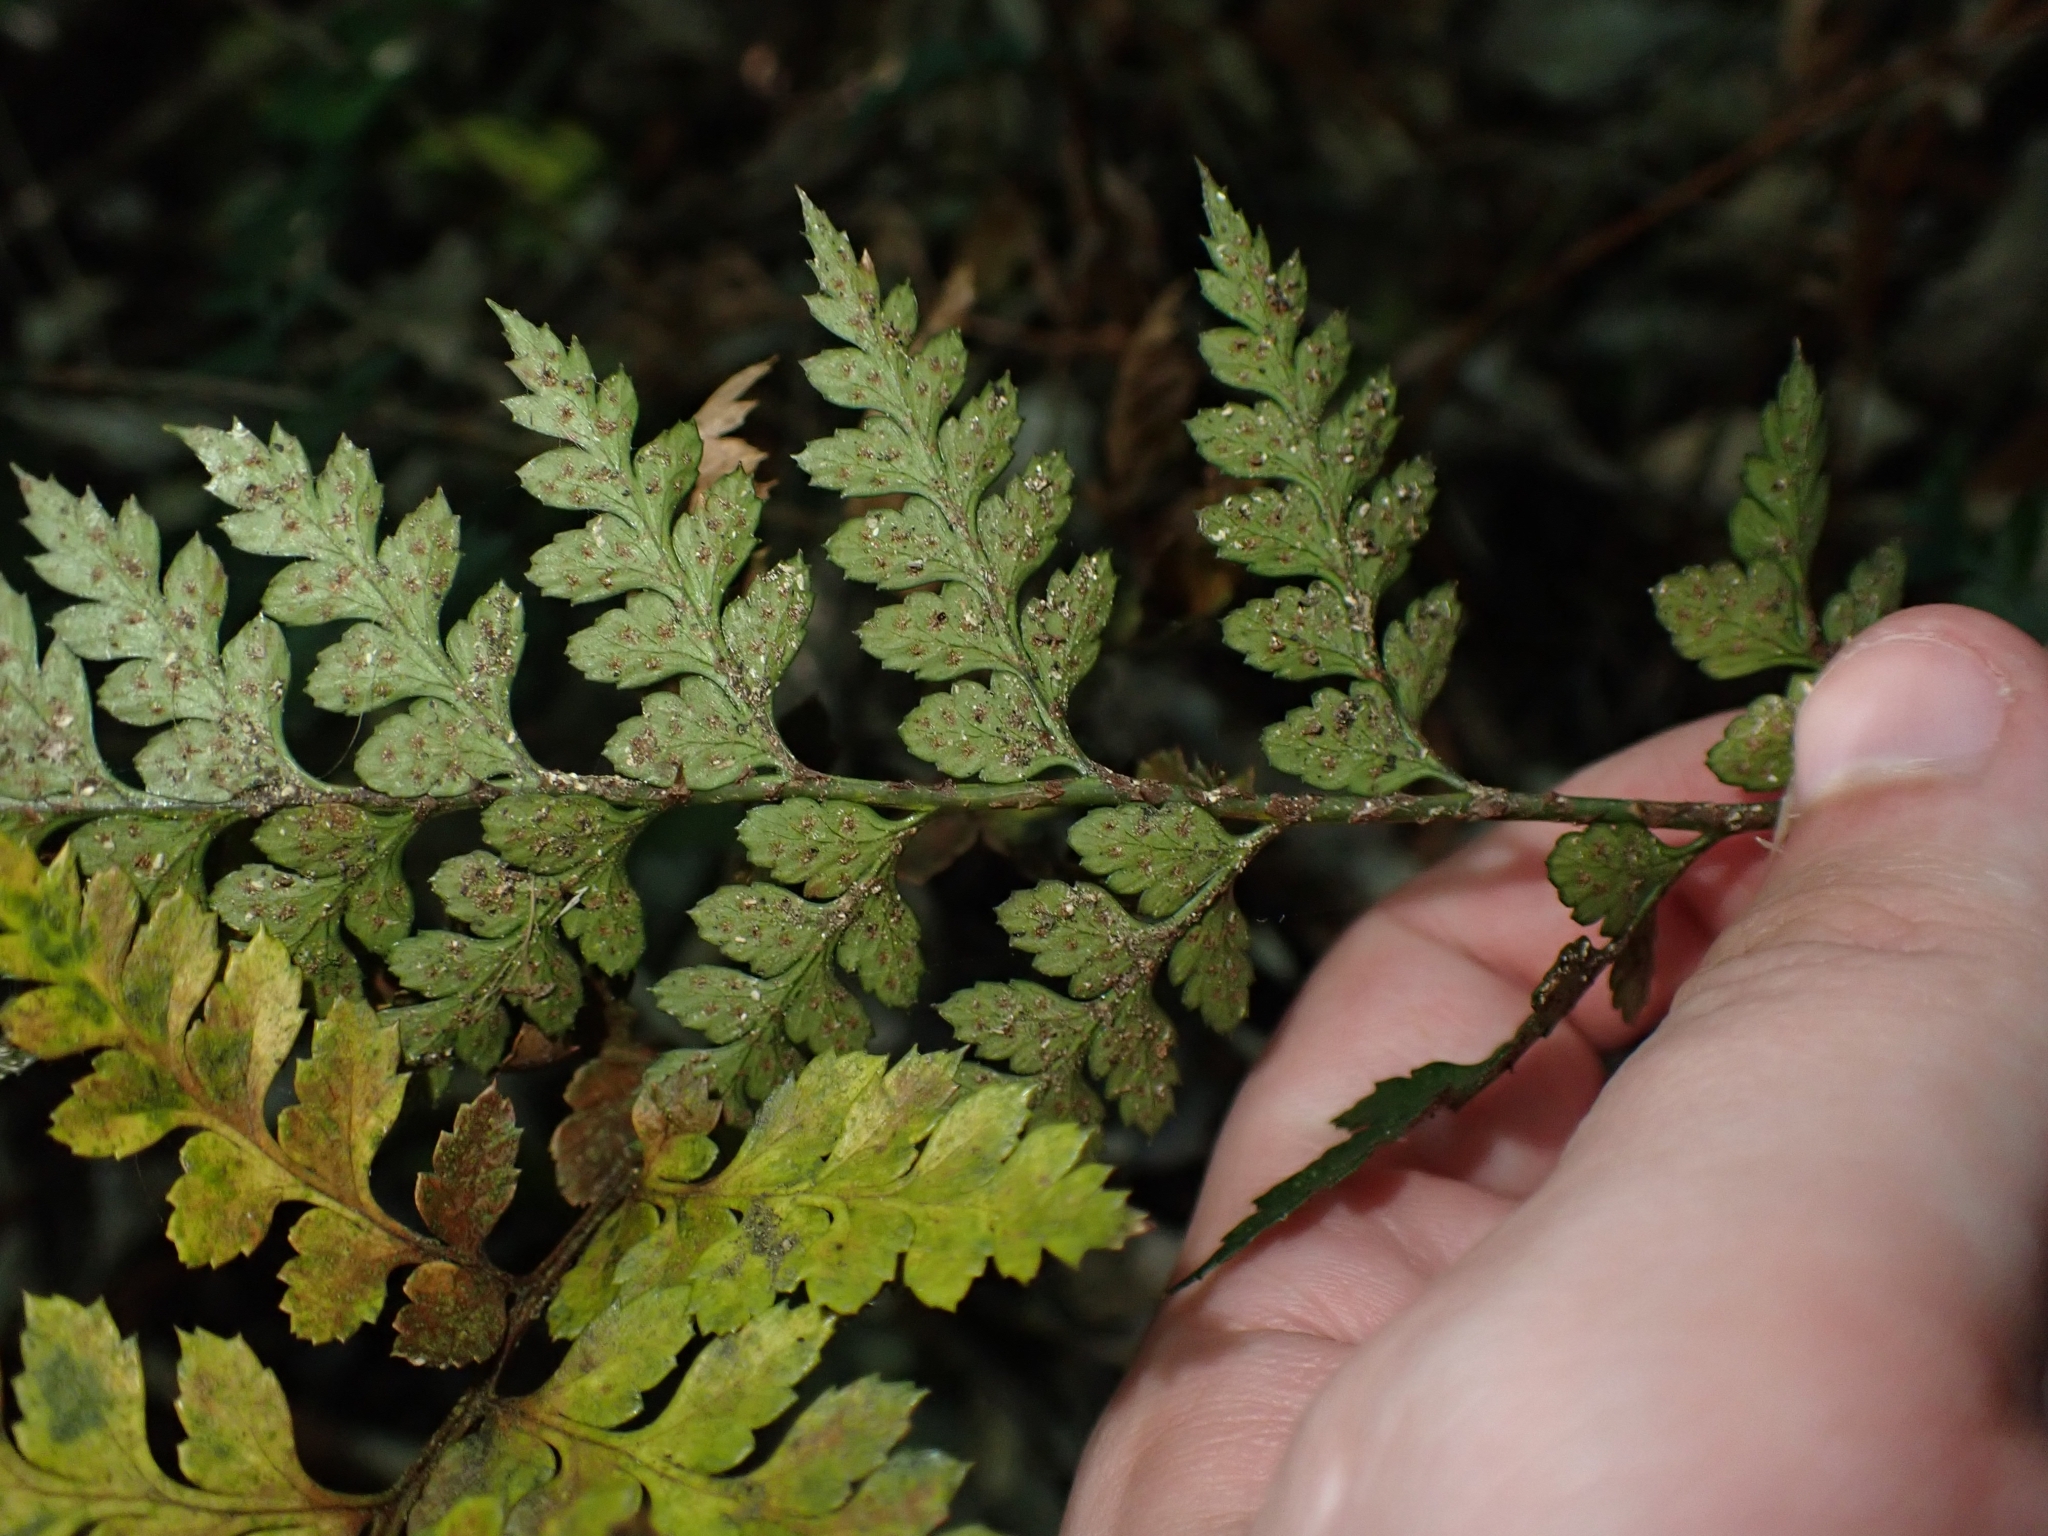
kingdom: Plantae
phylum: Tracheophyta
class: Polypodiopsida
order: Polypodiales
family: Dryopteridaceae
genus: Polystichum
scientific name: Polystichum oculatum
